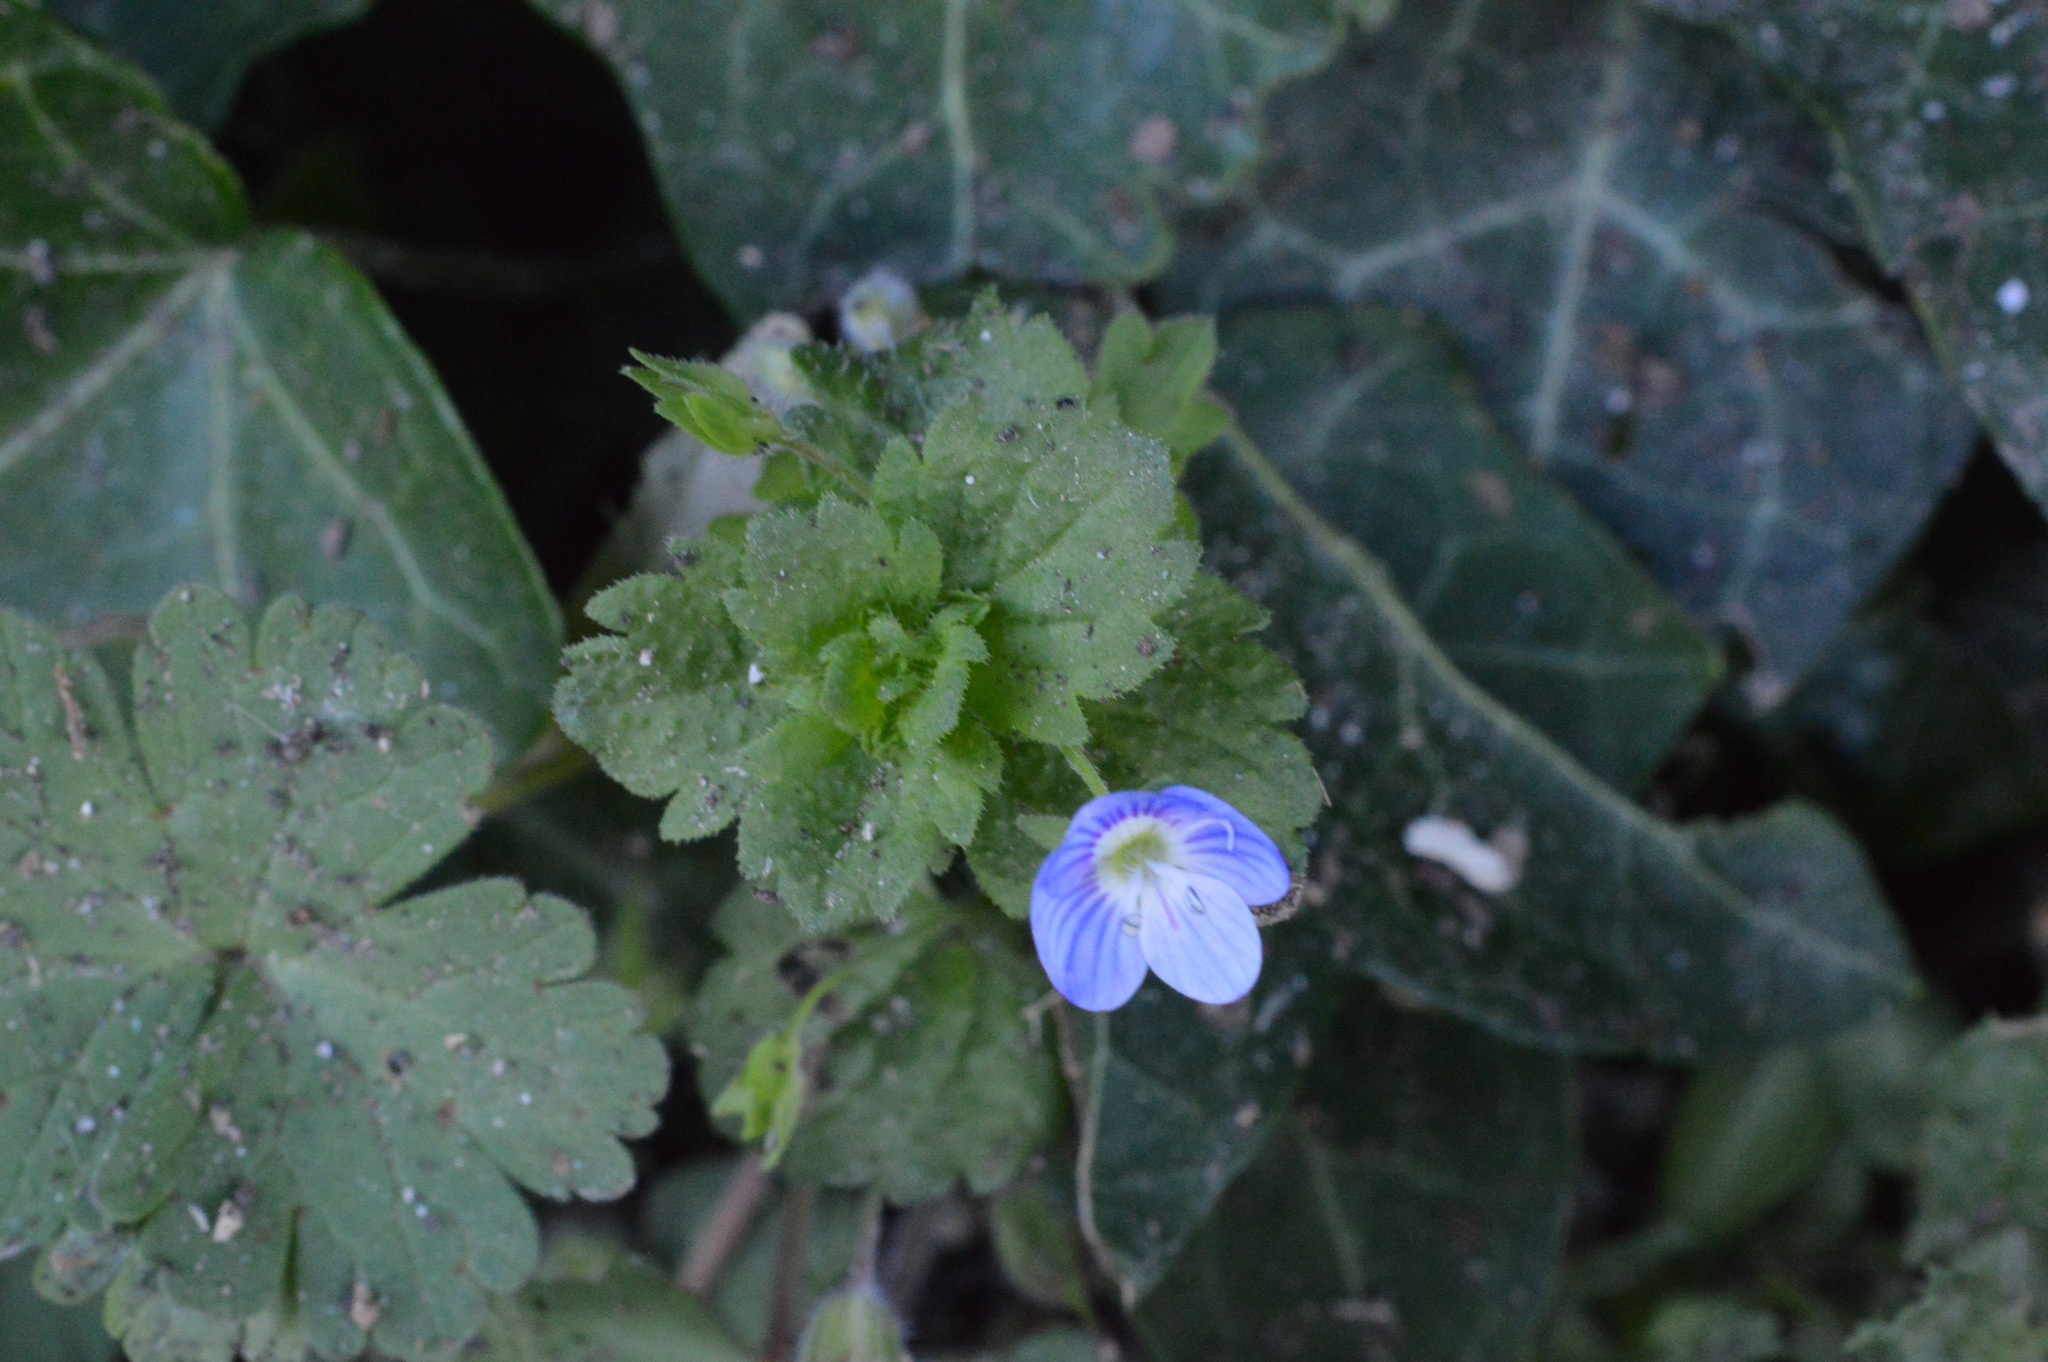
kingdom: Plantae
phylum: Tracheophyta
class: Magnoliopsida
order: Lamiales
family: Plantaginaceae
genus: Veronica
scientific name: Veronica persica
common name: Common field-speedwell
